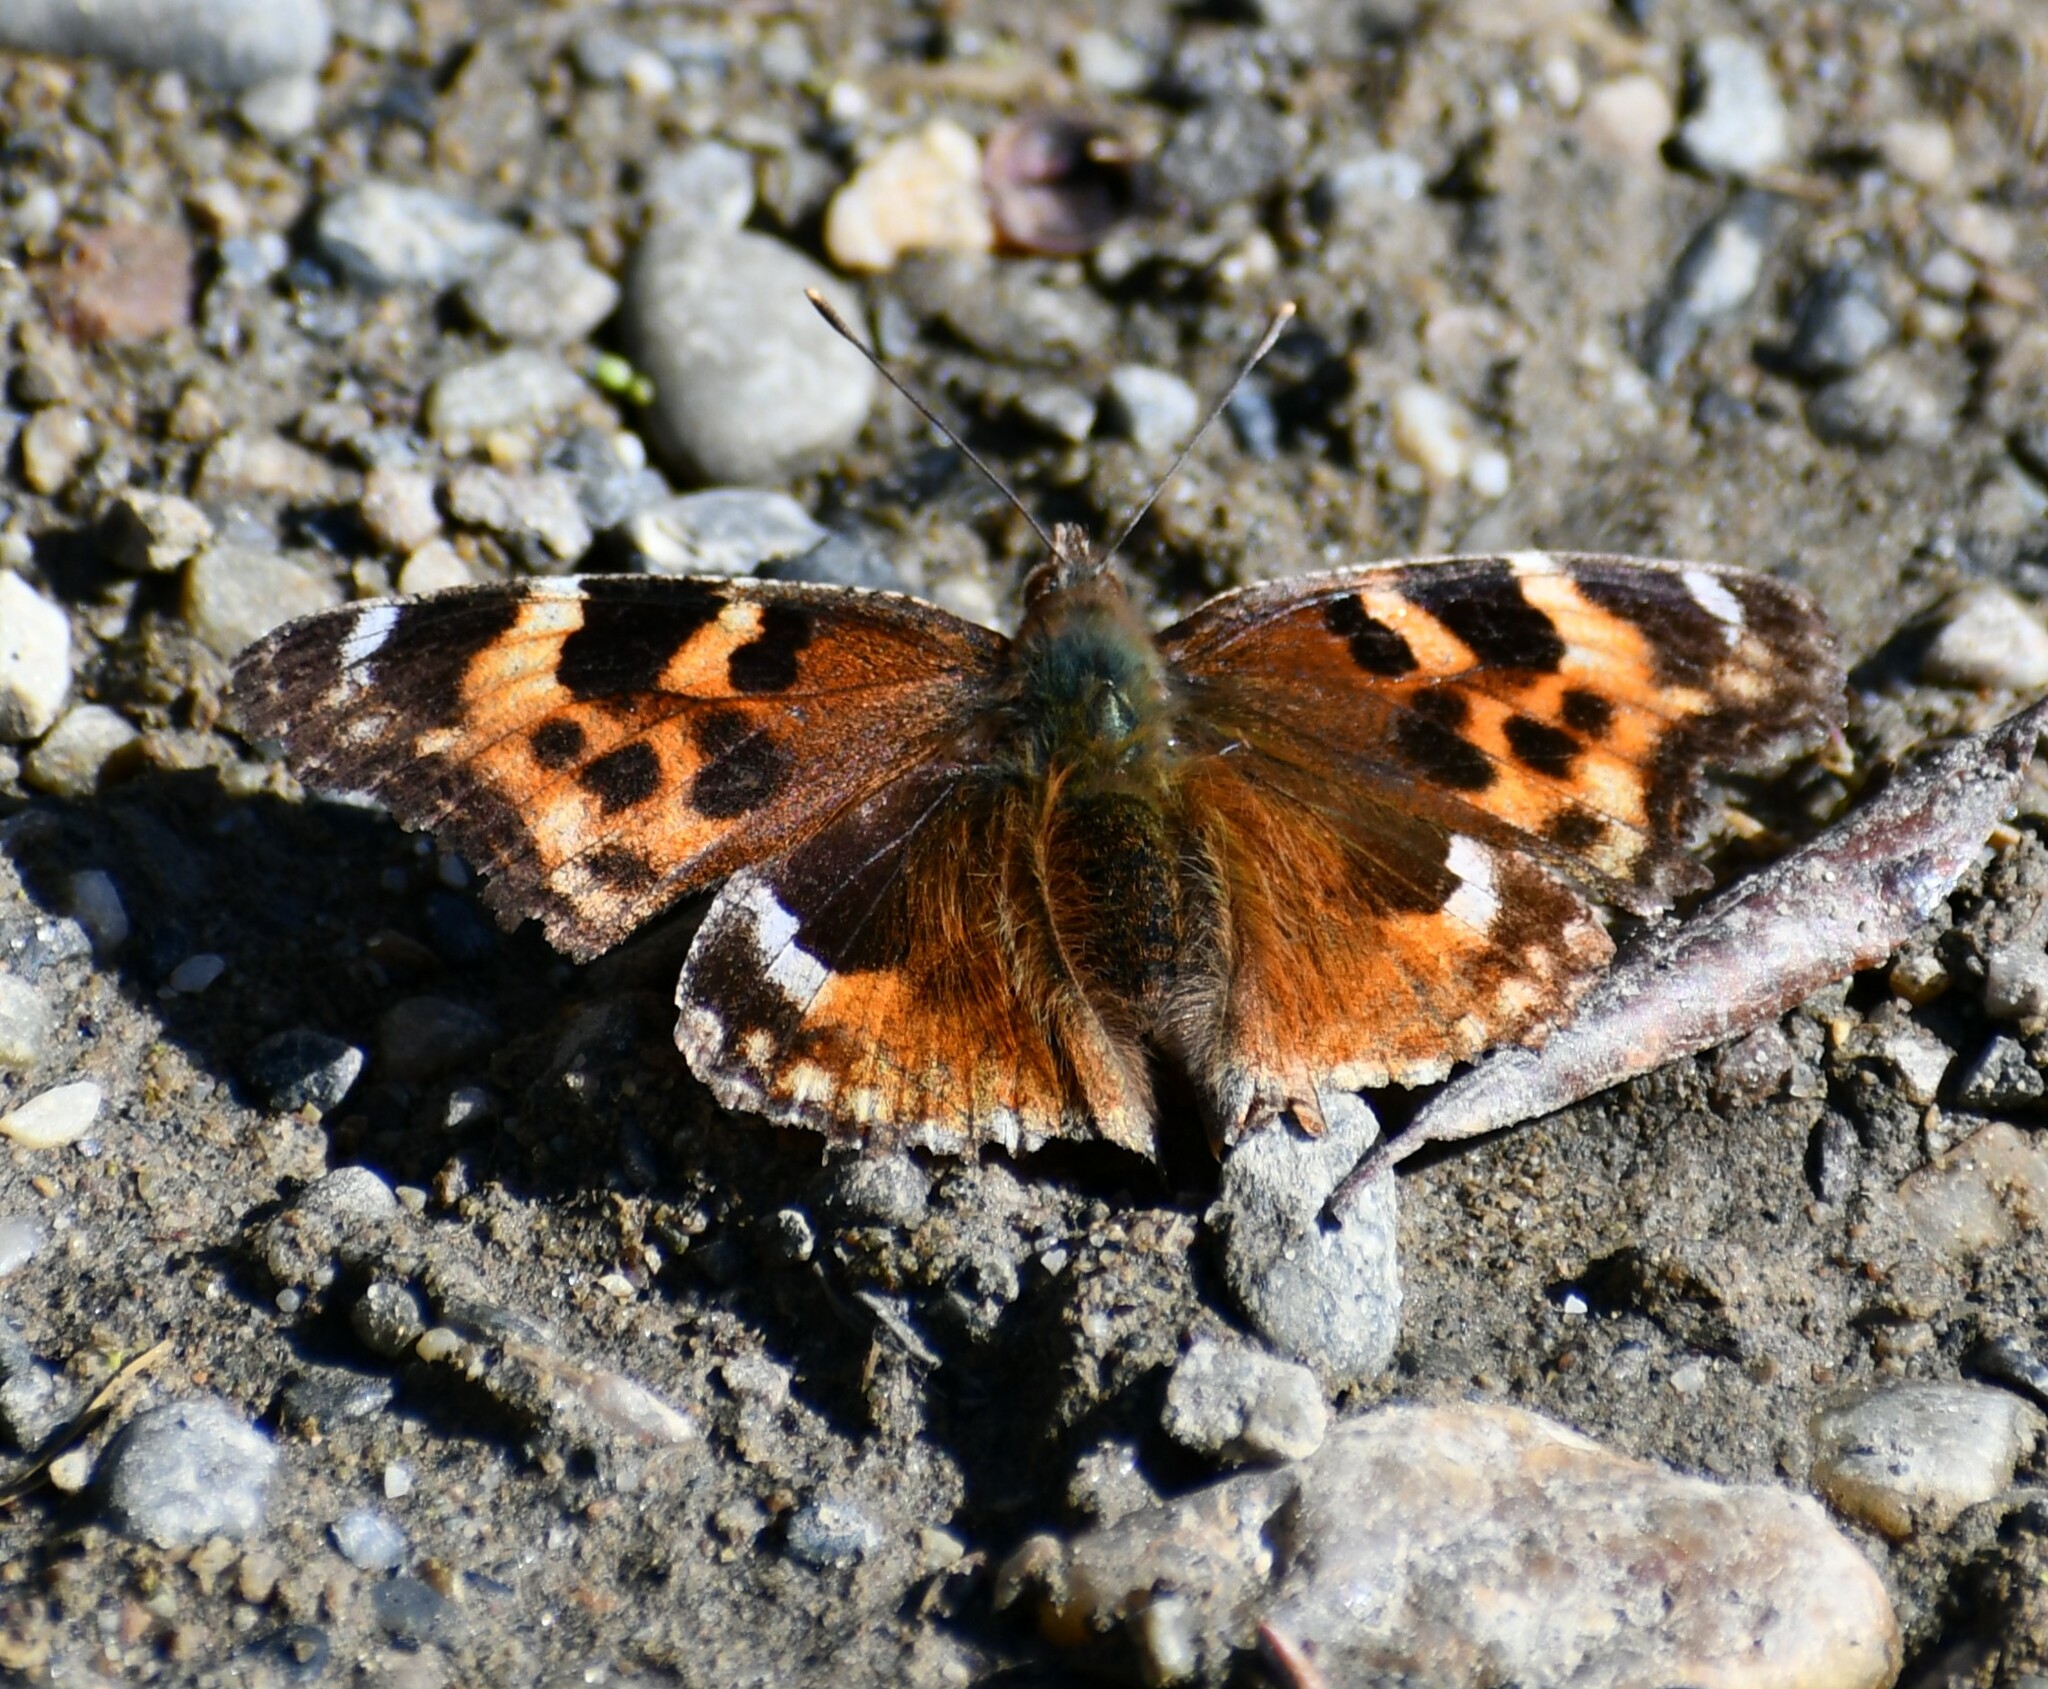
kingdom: Animalia
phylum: Arthropoda
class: Insecta
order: Lepidoptera
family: Nymphalidae
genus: Polygonia
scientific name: Polygonia vaualbum
